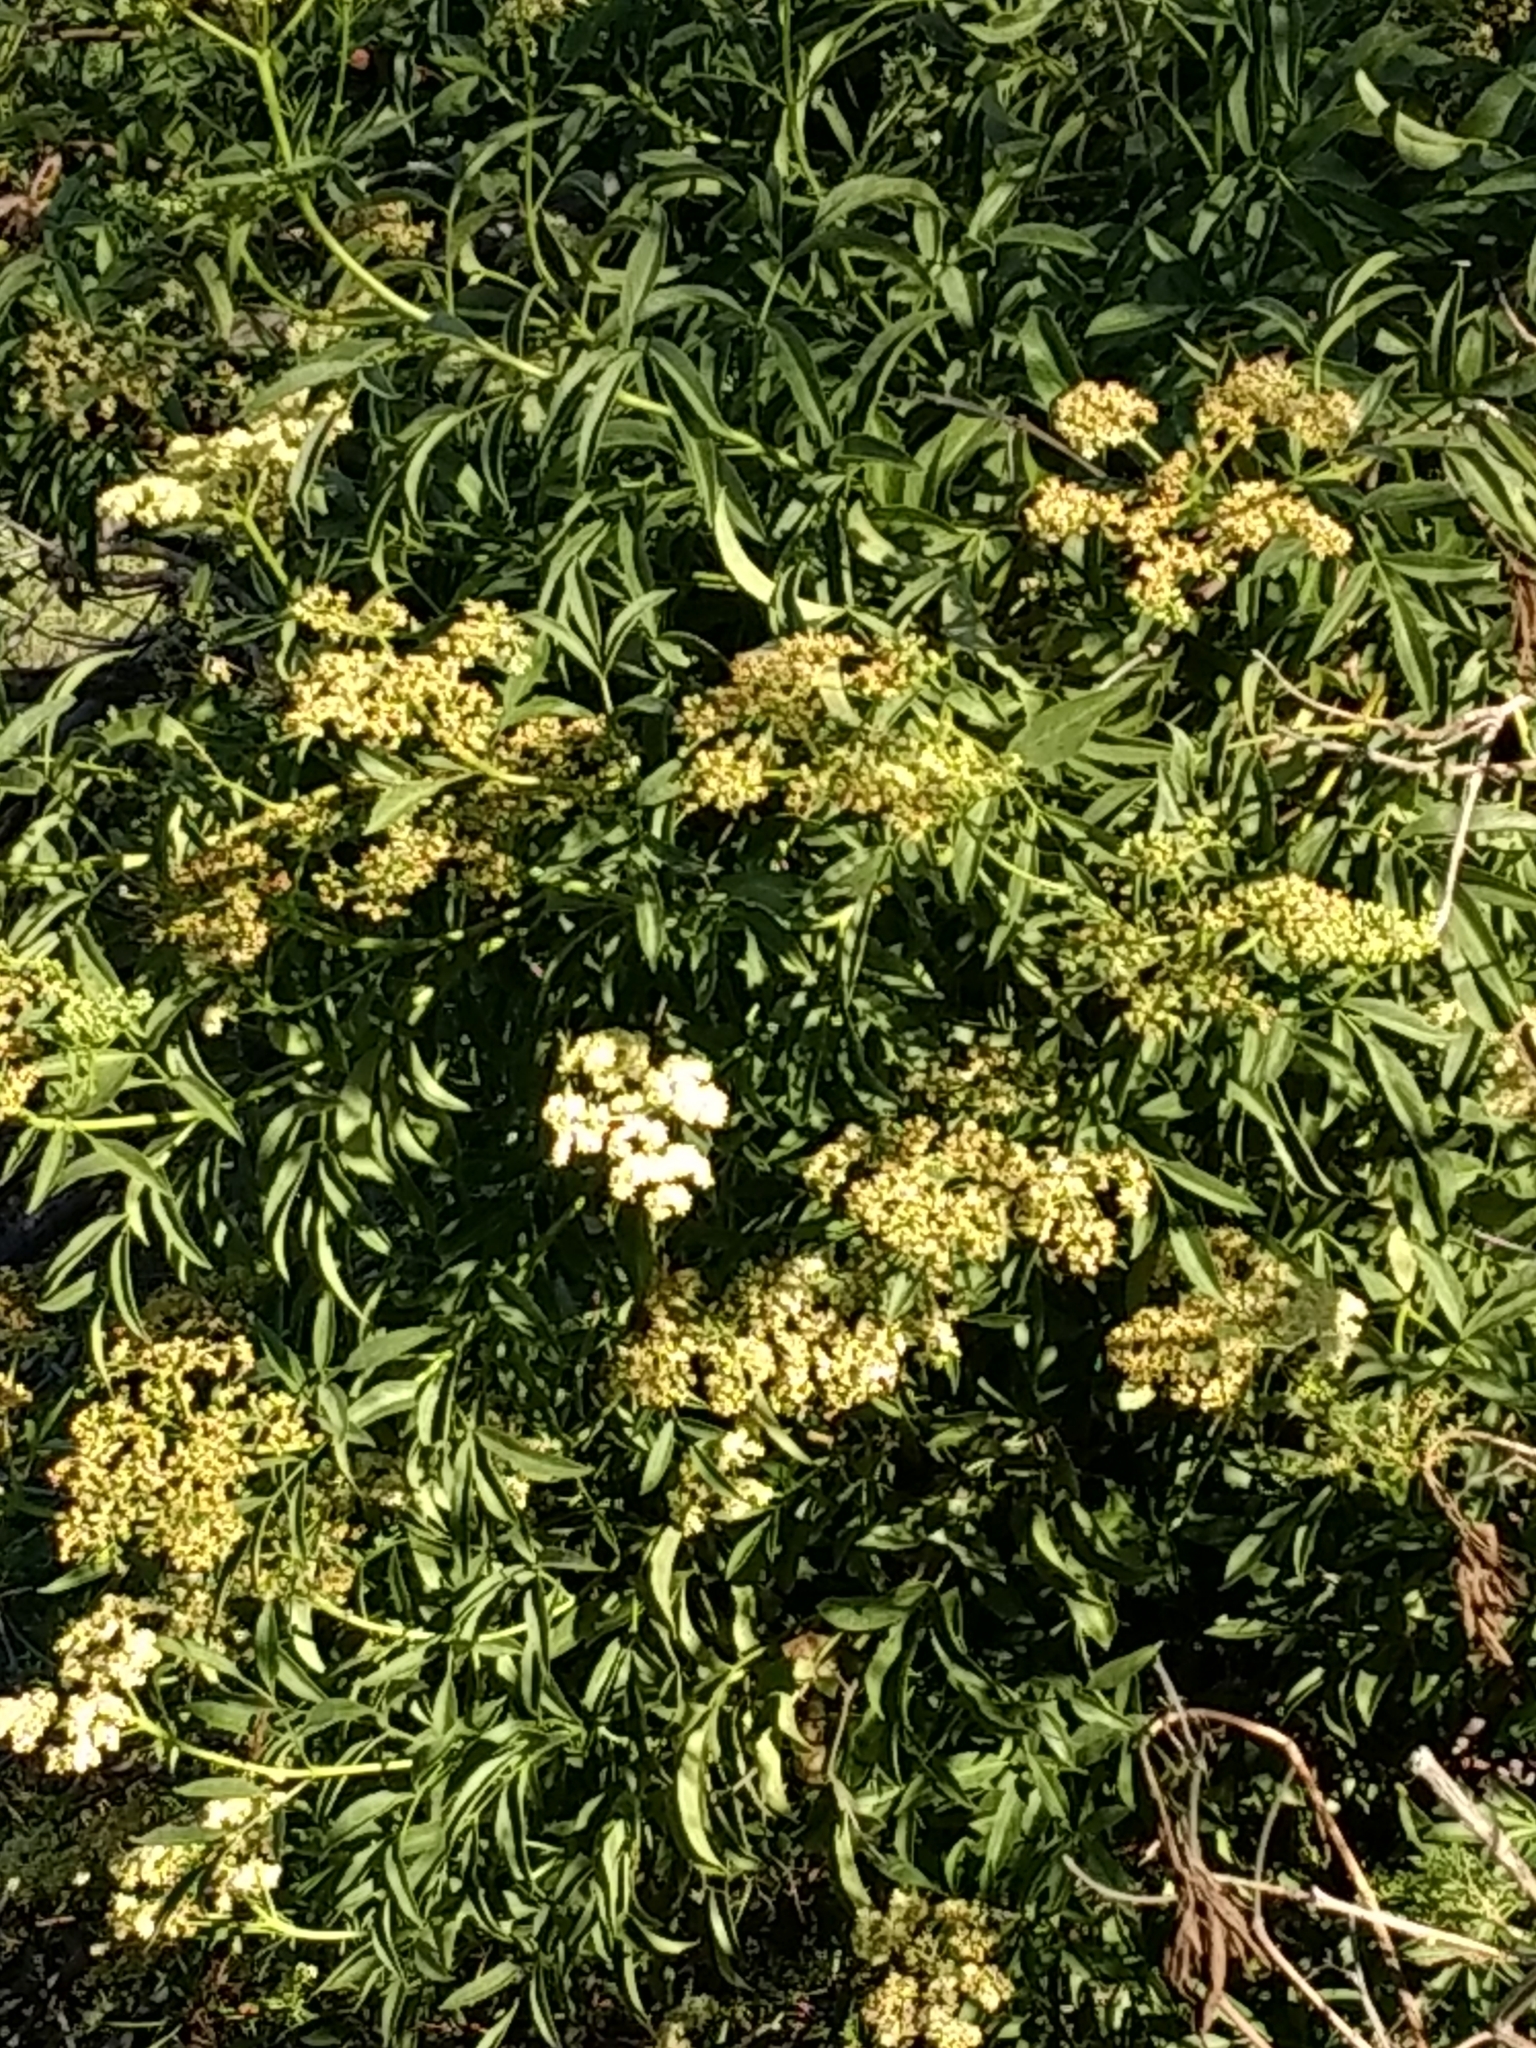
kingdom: Plantae
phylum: Tracheophyta
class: Magnoliopsida
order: Dipsacales
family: Viburnaceae
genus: Sambucus
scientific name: Sambucus cerulea
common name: Blue elder
